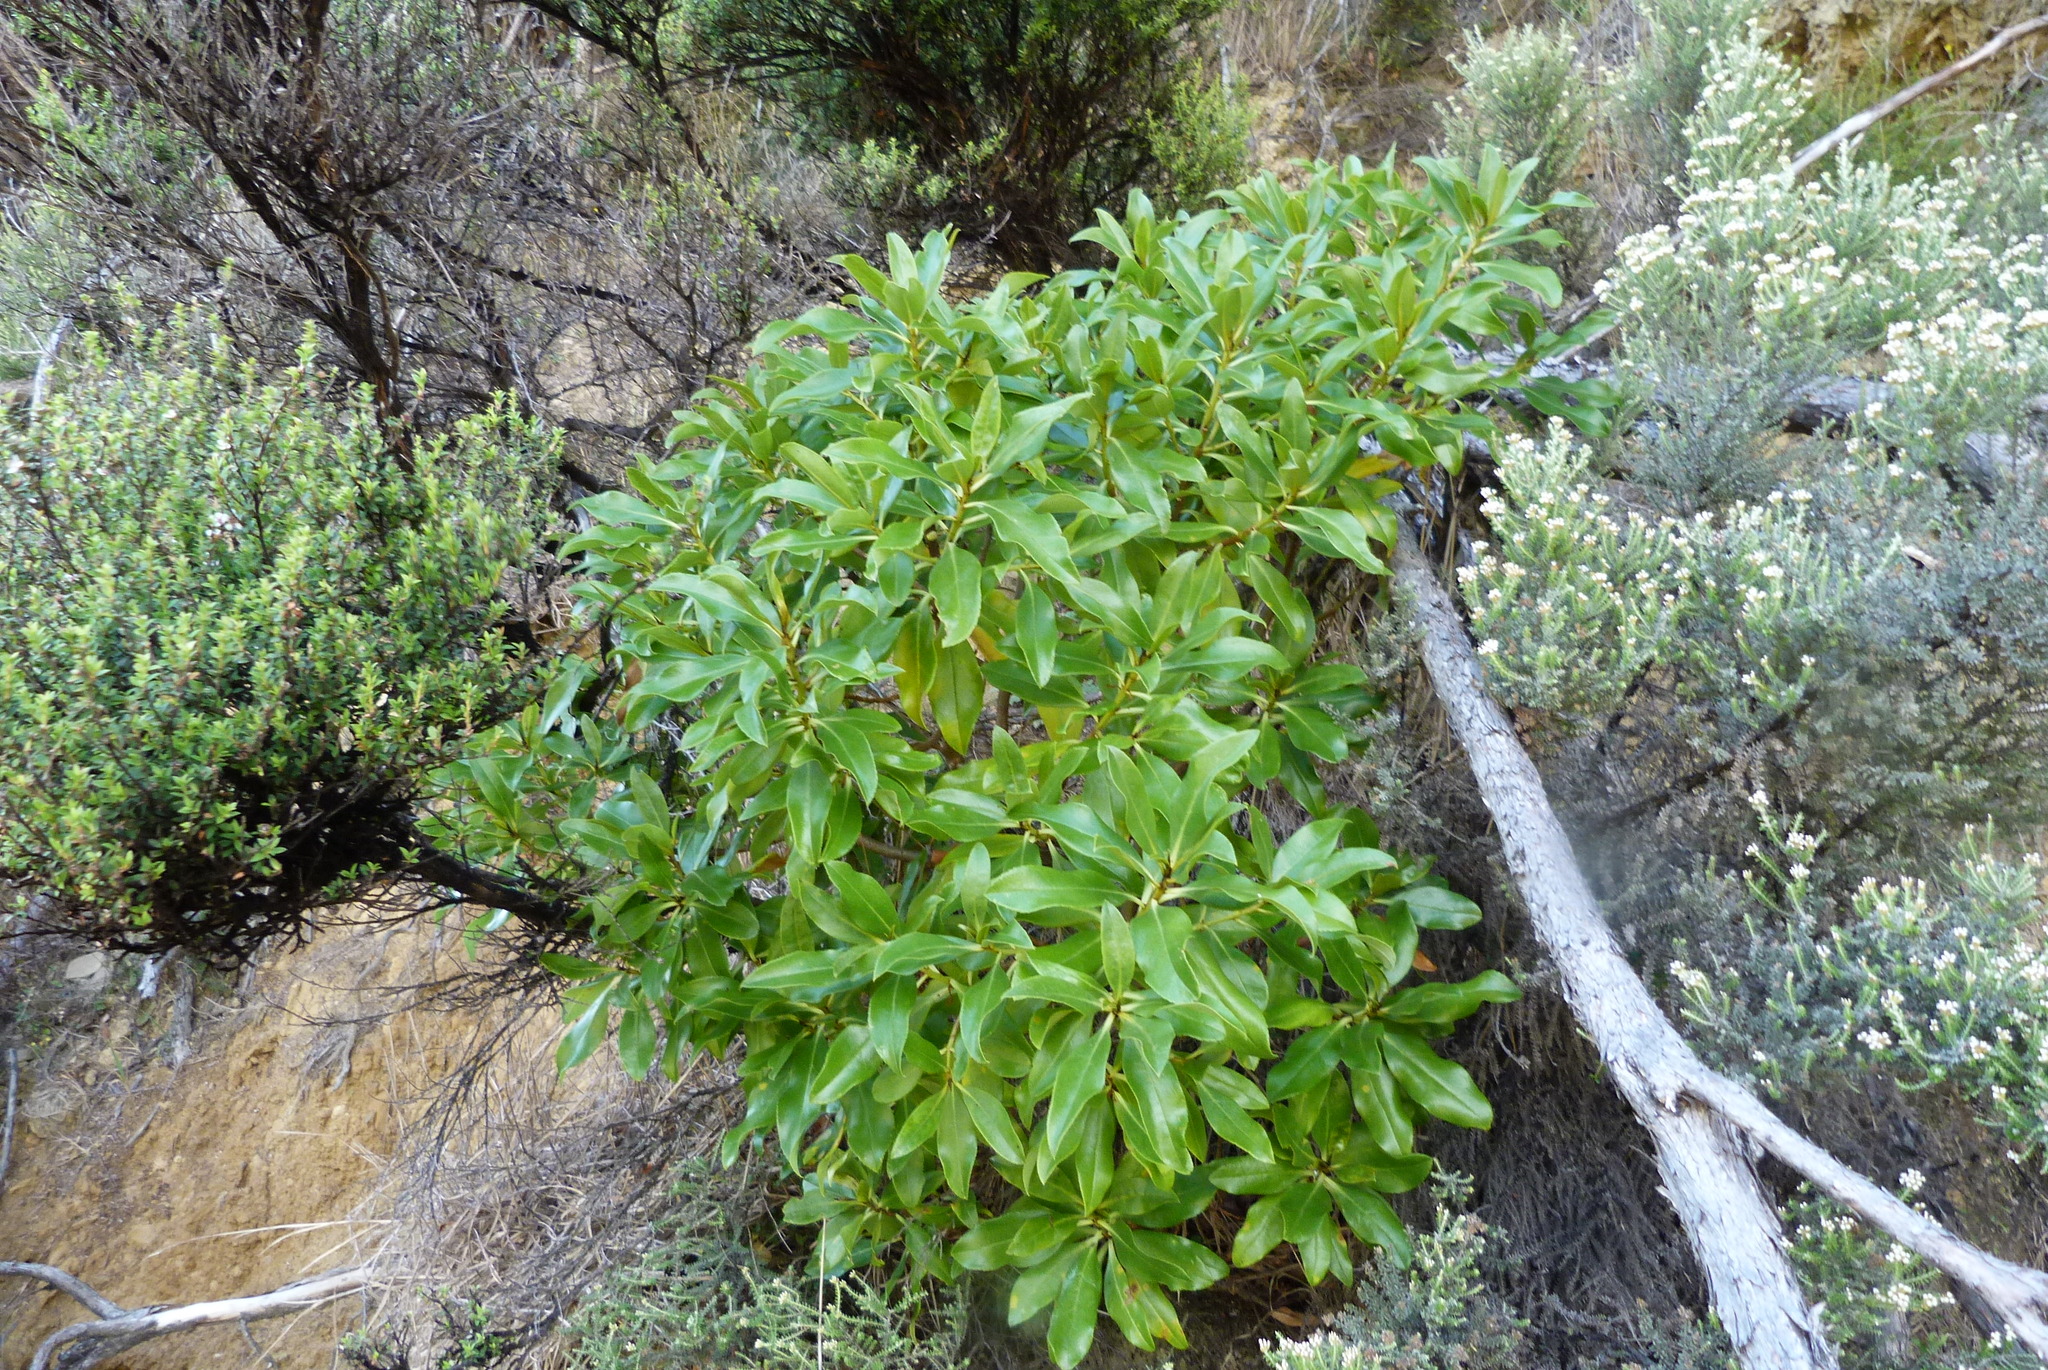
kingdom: Plantae
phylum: Tracheophyta
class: Magnoliopsida
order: Lamiales
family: Scrophulariaceae
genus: Myoporum
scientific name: Myoporum laetum
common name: Ngaio tree
